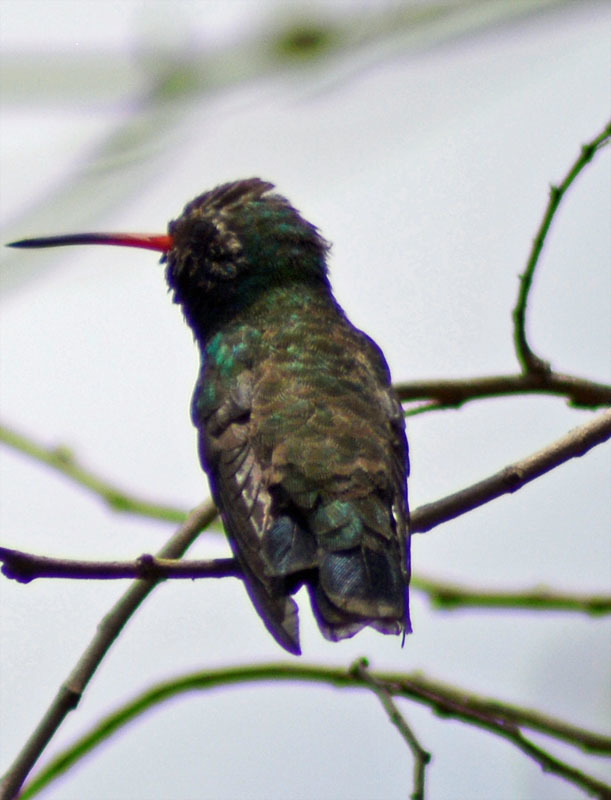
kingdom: Animalia
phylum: Chordata
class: Aves
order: Apodiformes
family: Trochilidae
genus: Cynanthus
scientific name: Cynanthus latirostris
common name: Broad-billed hummingbird
